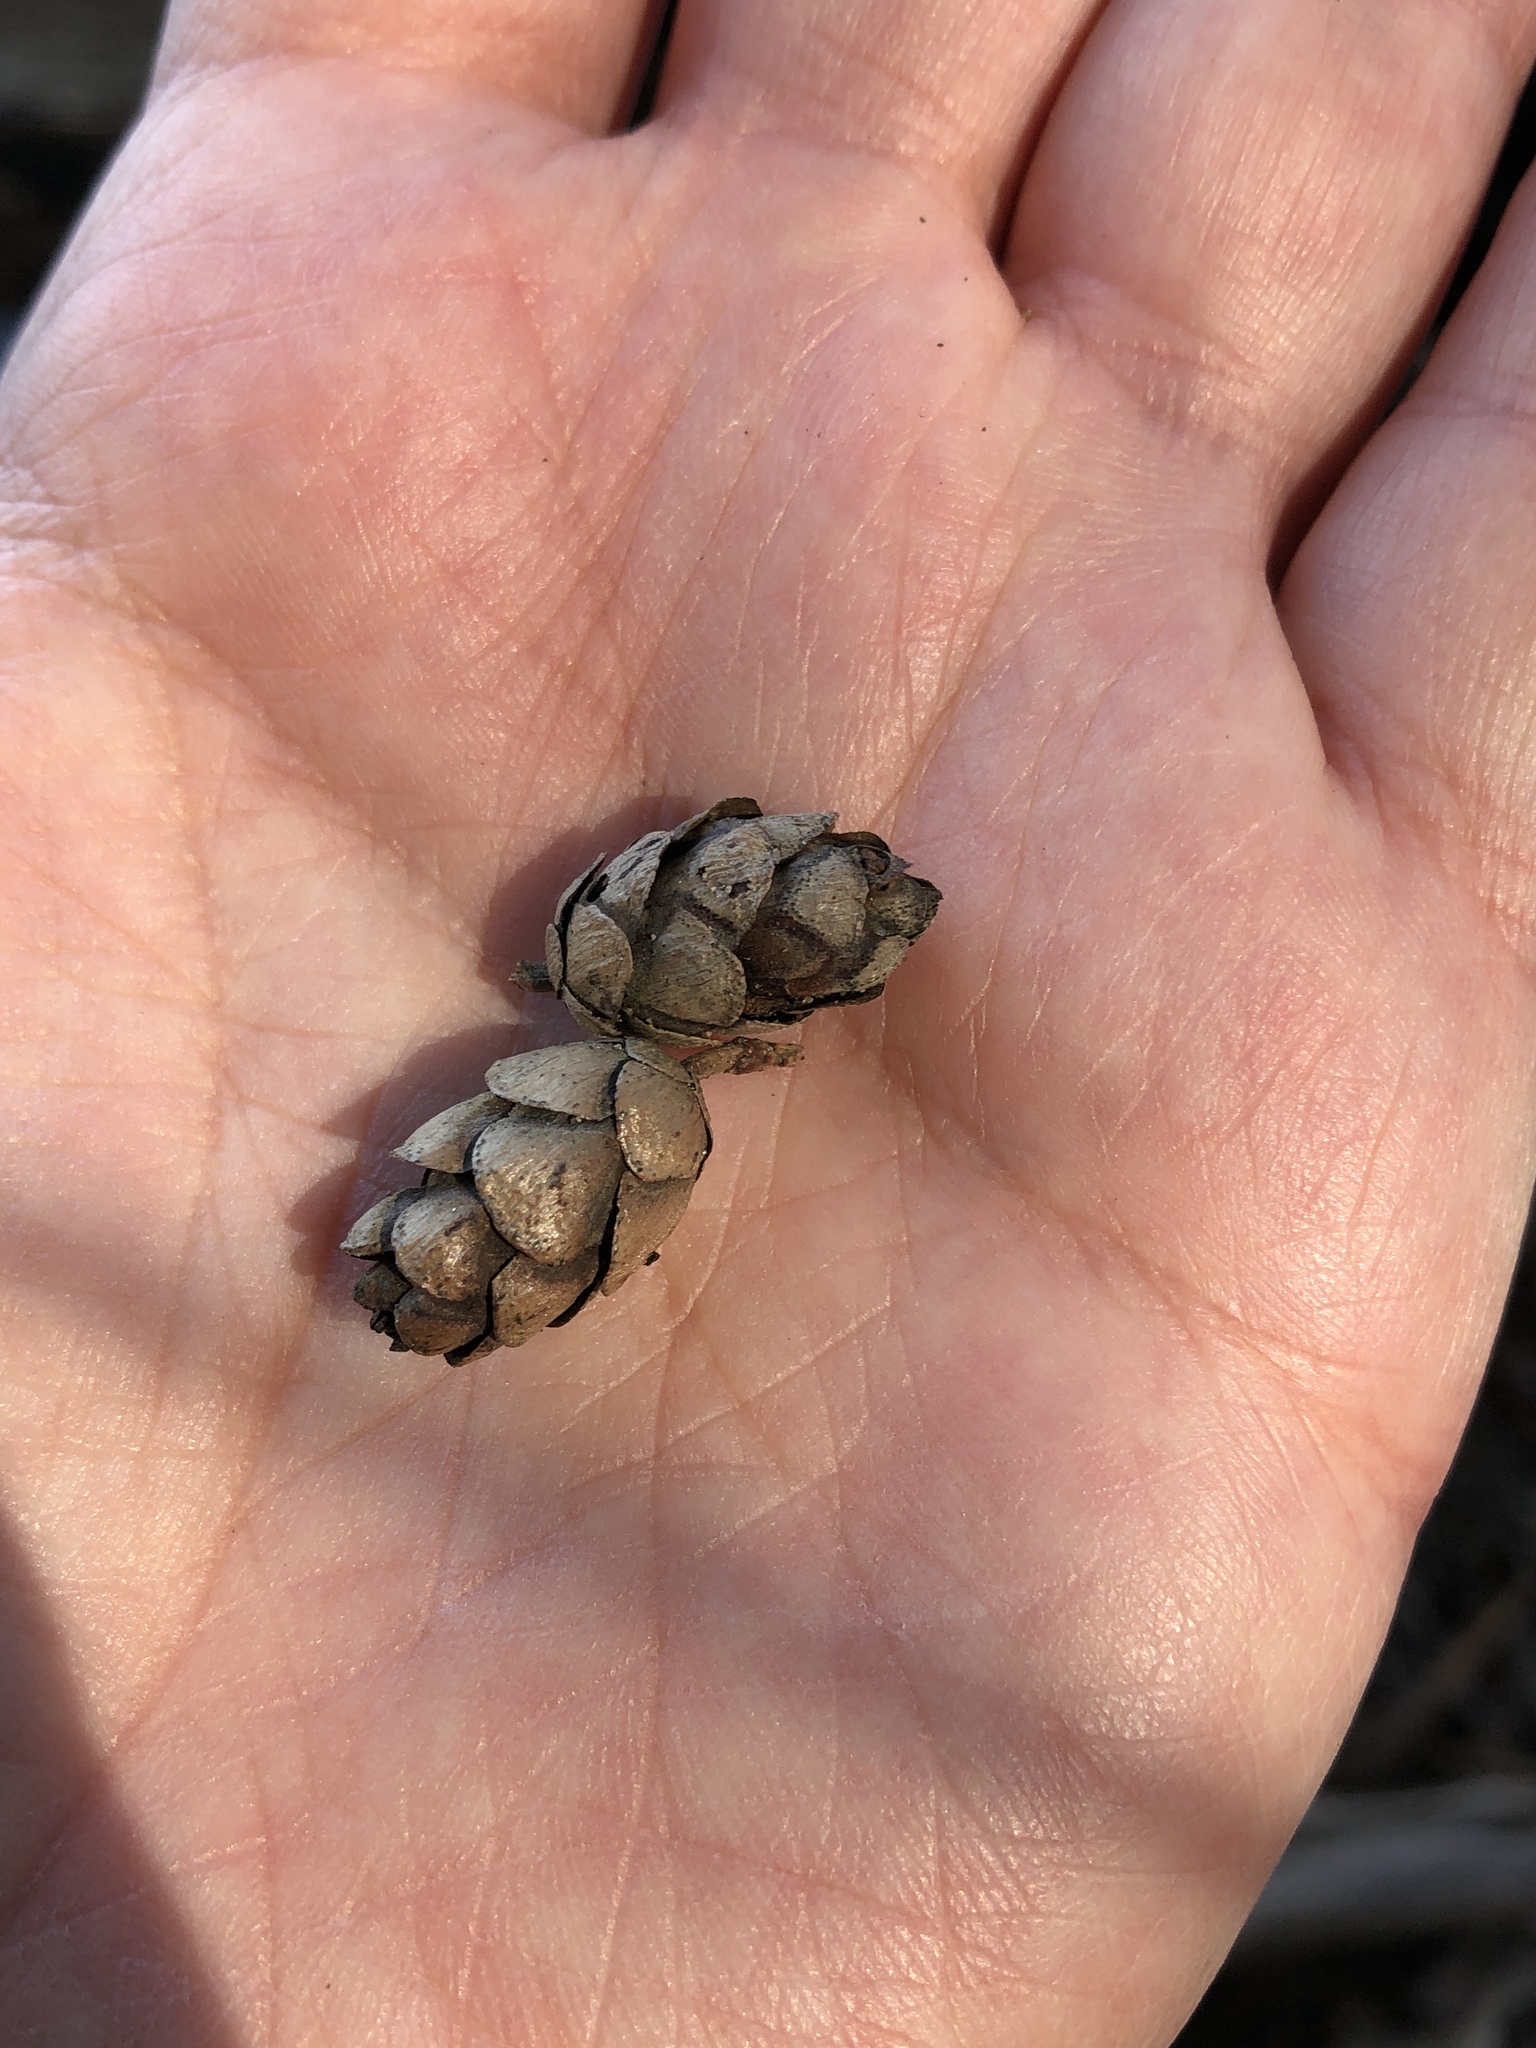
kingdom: Plantae
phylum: Tracheophyta
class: Pinopsida
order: Pinales
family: Pinaceae
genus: Tsuga
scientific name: Tsuga canadensis
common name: Eastern hemlock
